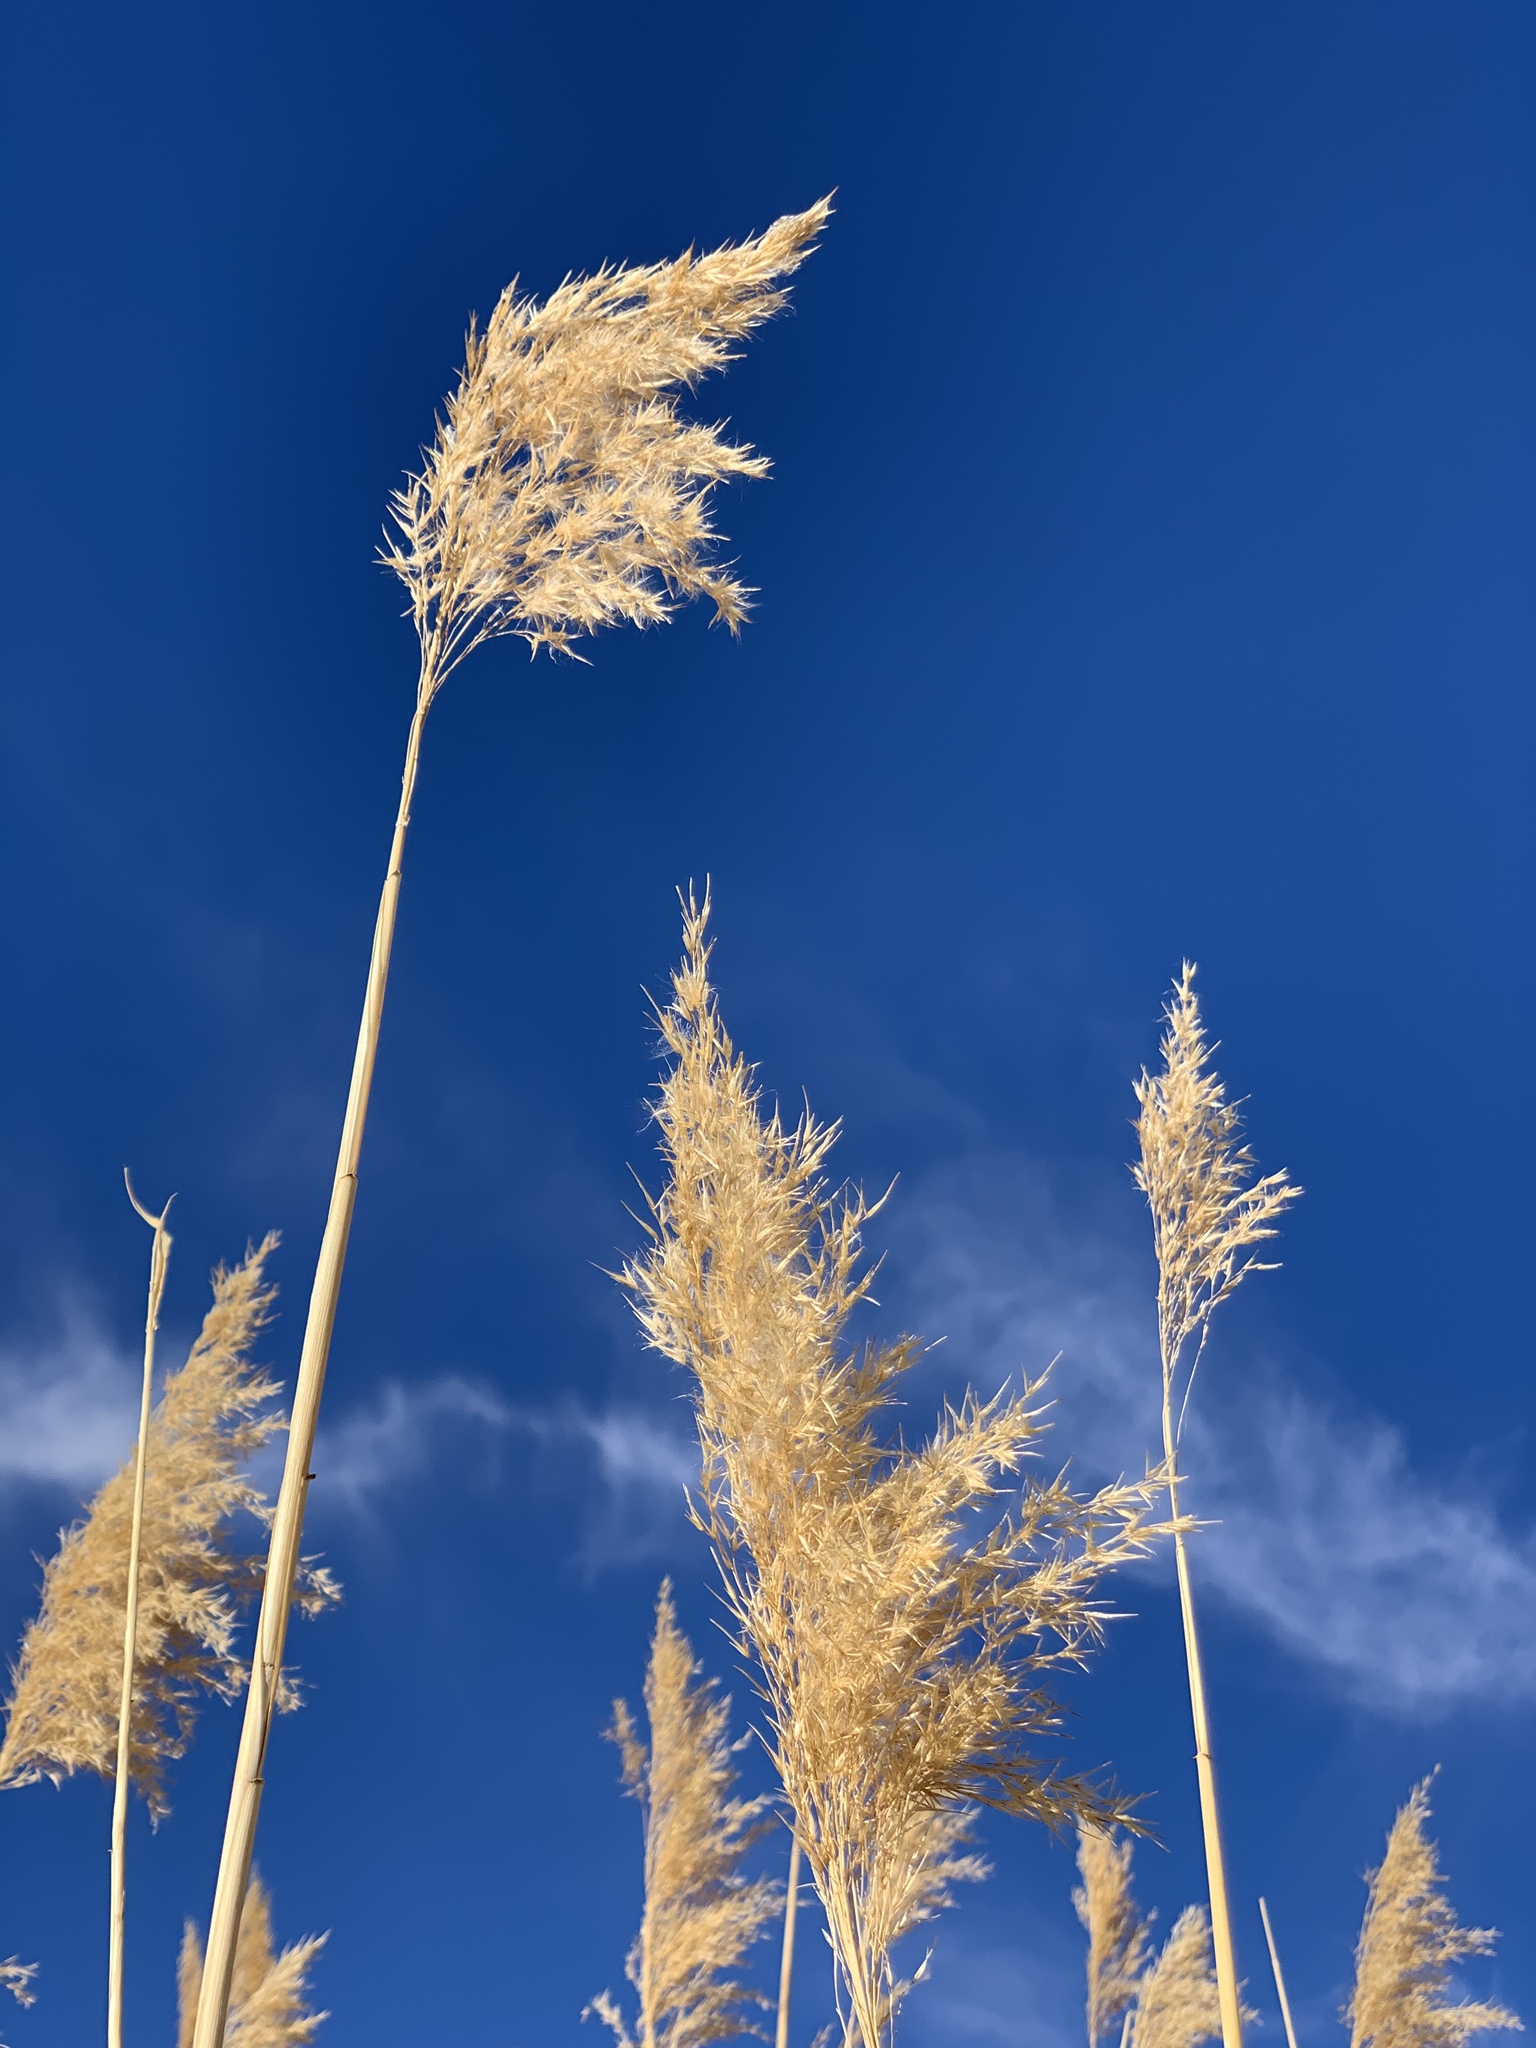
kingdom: Plantae
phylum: Tracheophyta
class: Liliopsida
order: Poales
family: Poaceae
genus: Phragmites
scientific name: Phragmites australis
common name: Common reed
